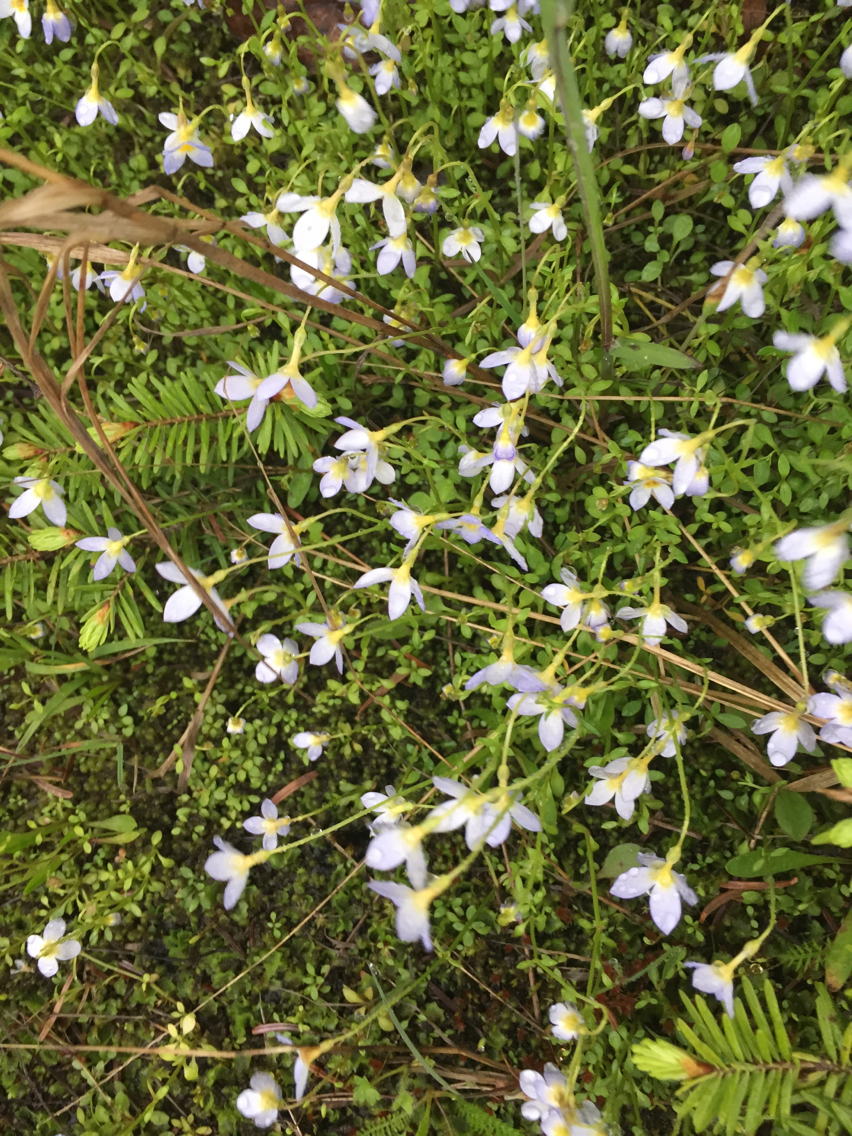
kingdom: Plantae
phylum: Tracheophyta
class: Magnoliopsida
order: Gentianales
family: Rubiaceae
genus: Houstonia
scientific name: Houstonia caerulea
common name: Bluets
